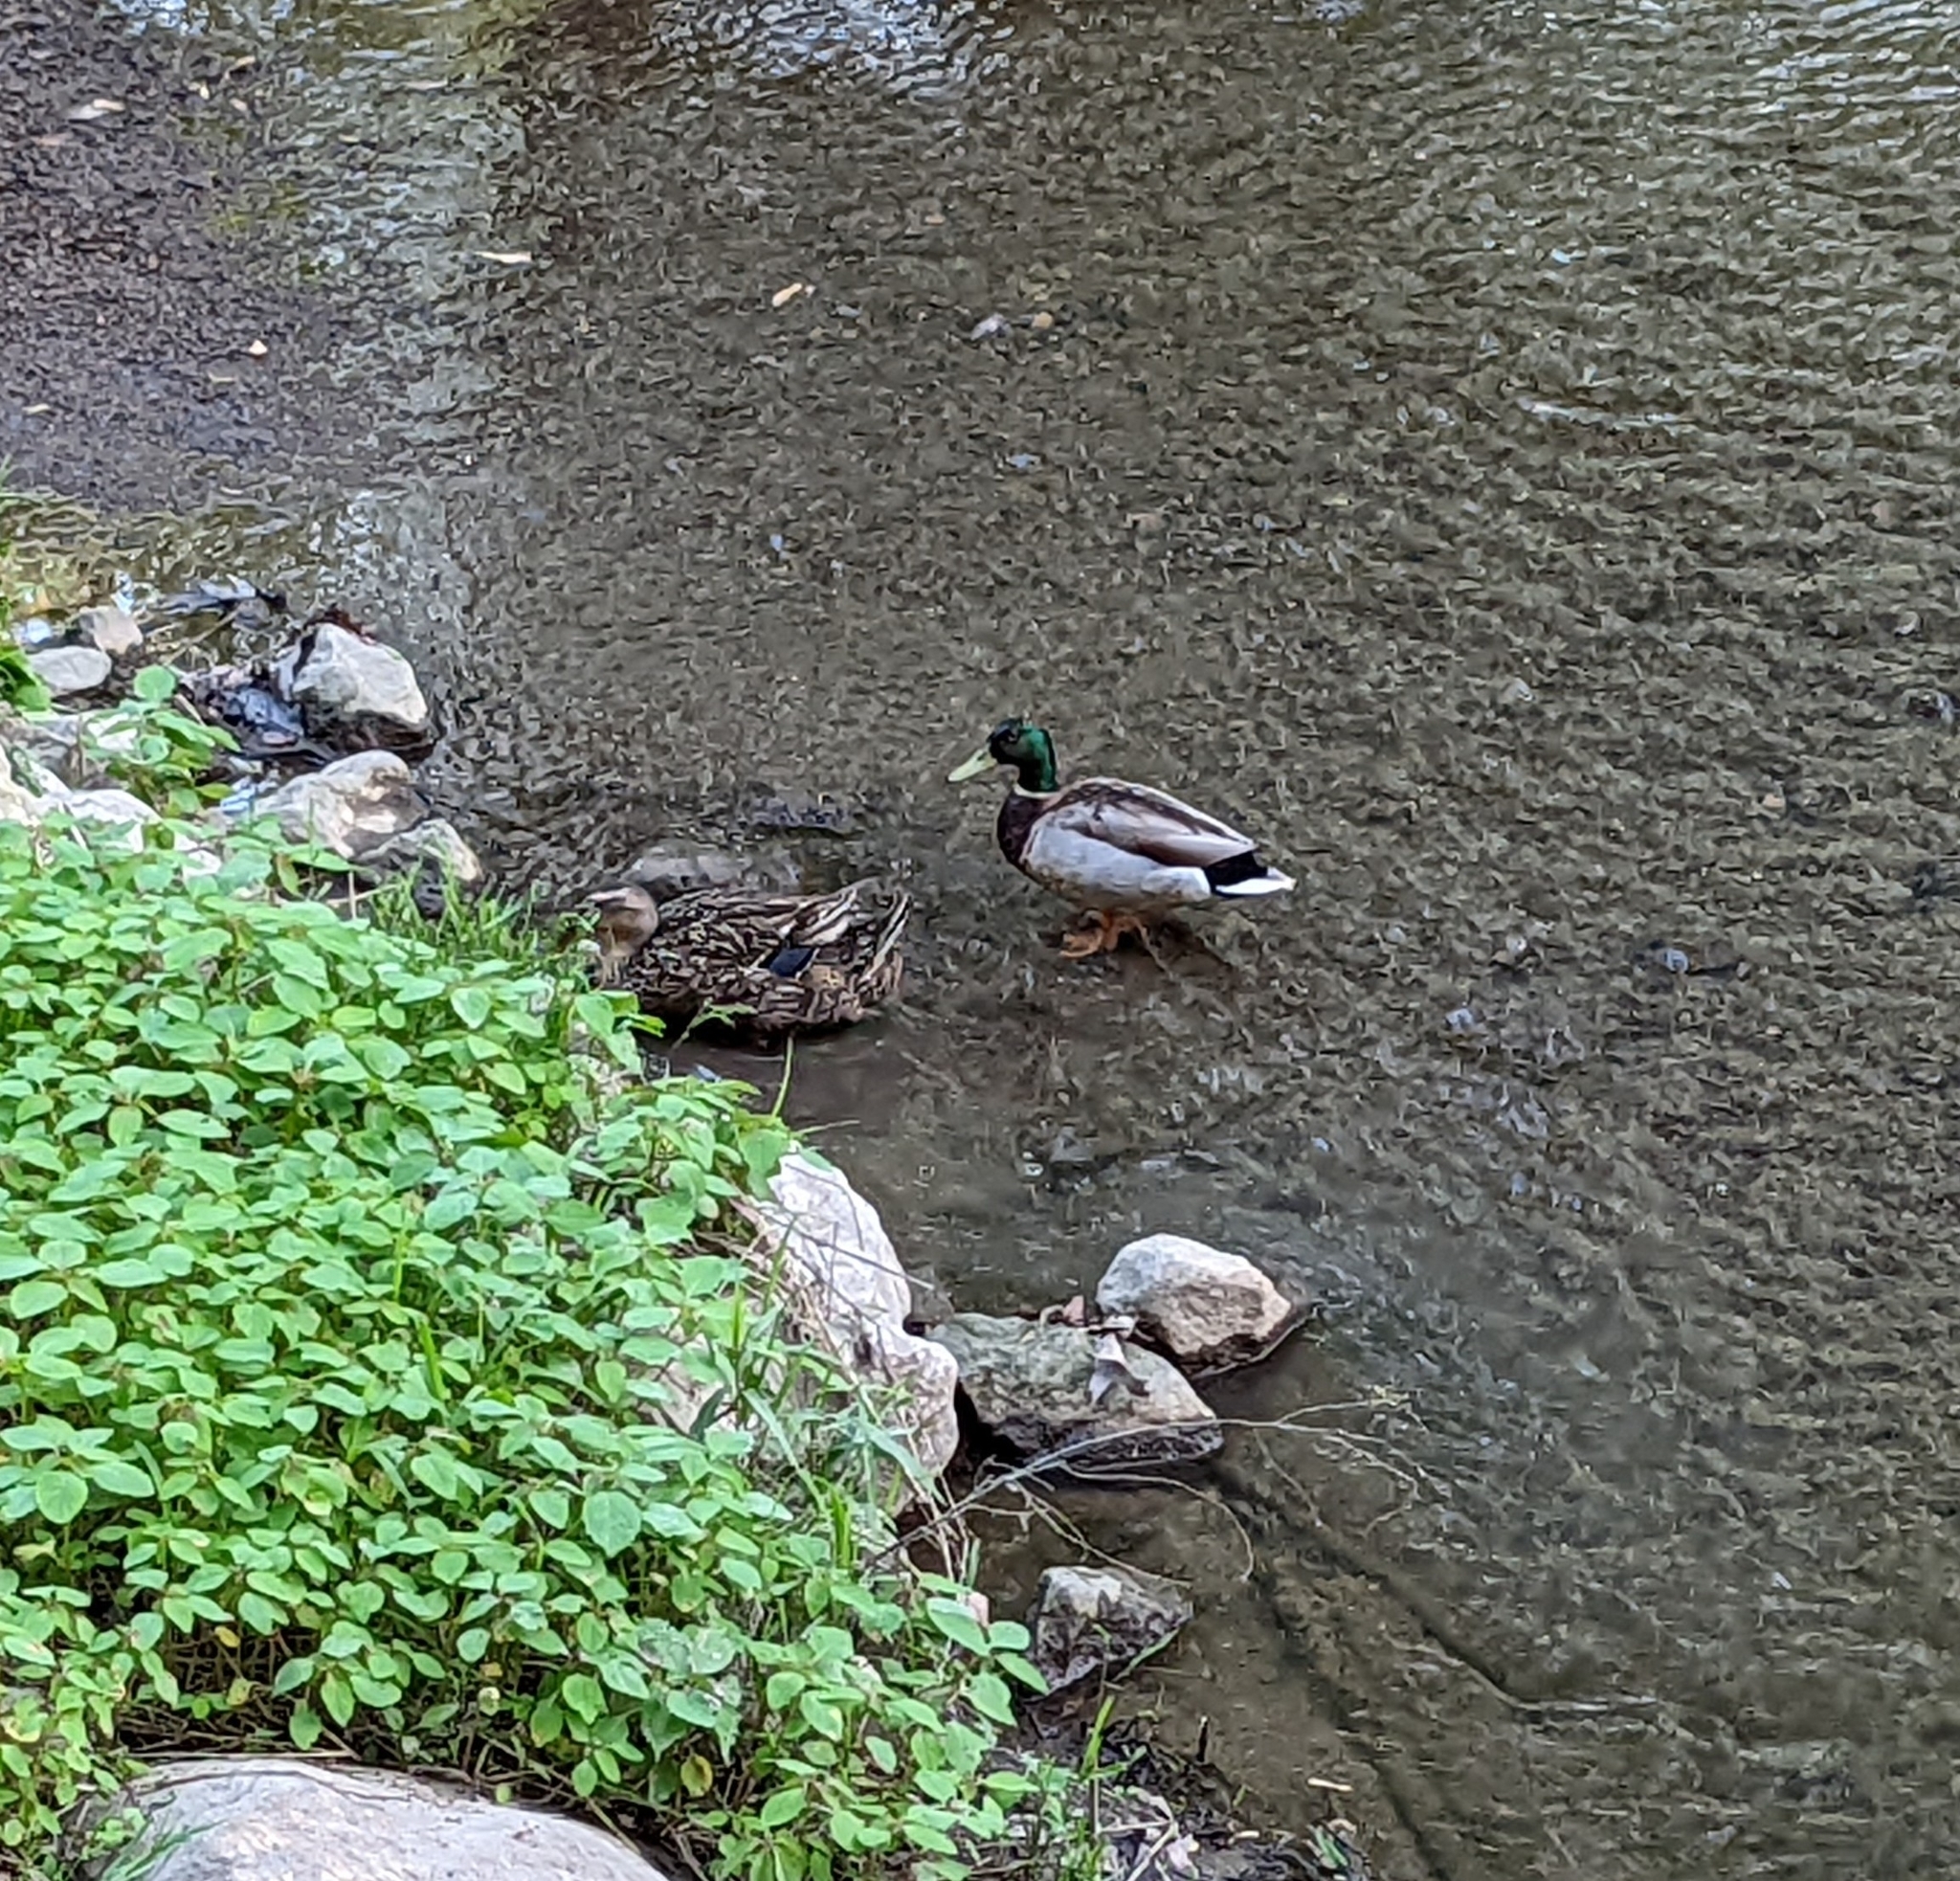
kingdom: Animalia
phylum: Chordata
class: Aves
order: Anseriformes
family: Anatidae
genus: Anas
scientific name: Anas platyrhynchos
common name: Mallard
